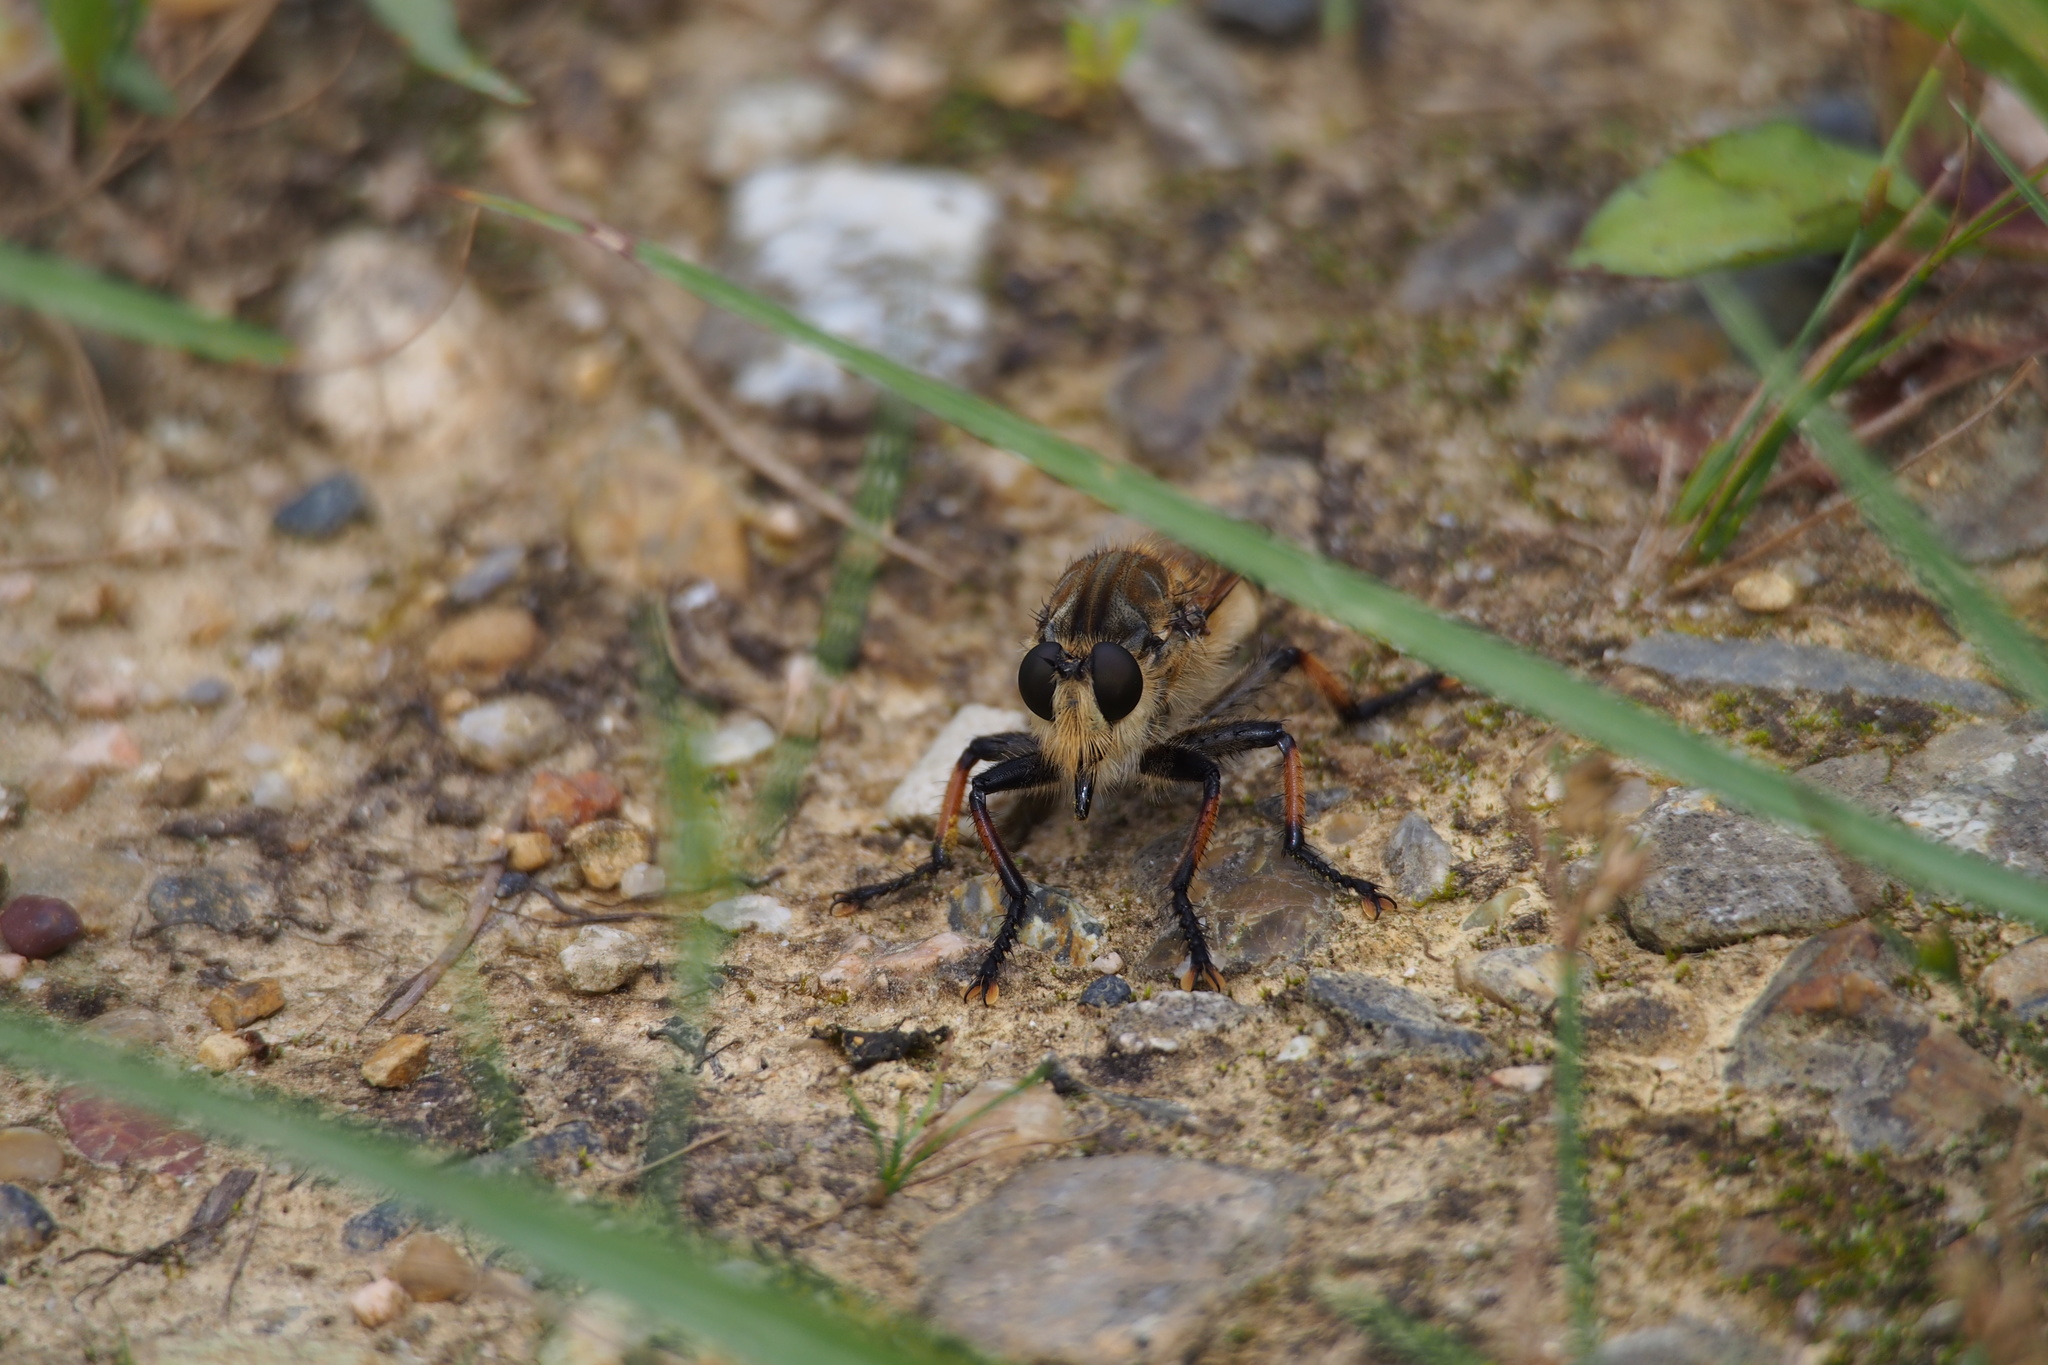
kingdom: Animalia
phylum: Arthropoda
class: Insecta
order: Diptera
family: Asilidae
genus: Promachus
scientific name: Promachus yesonicus
